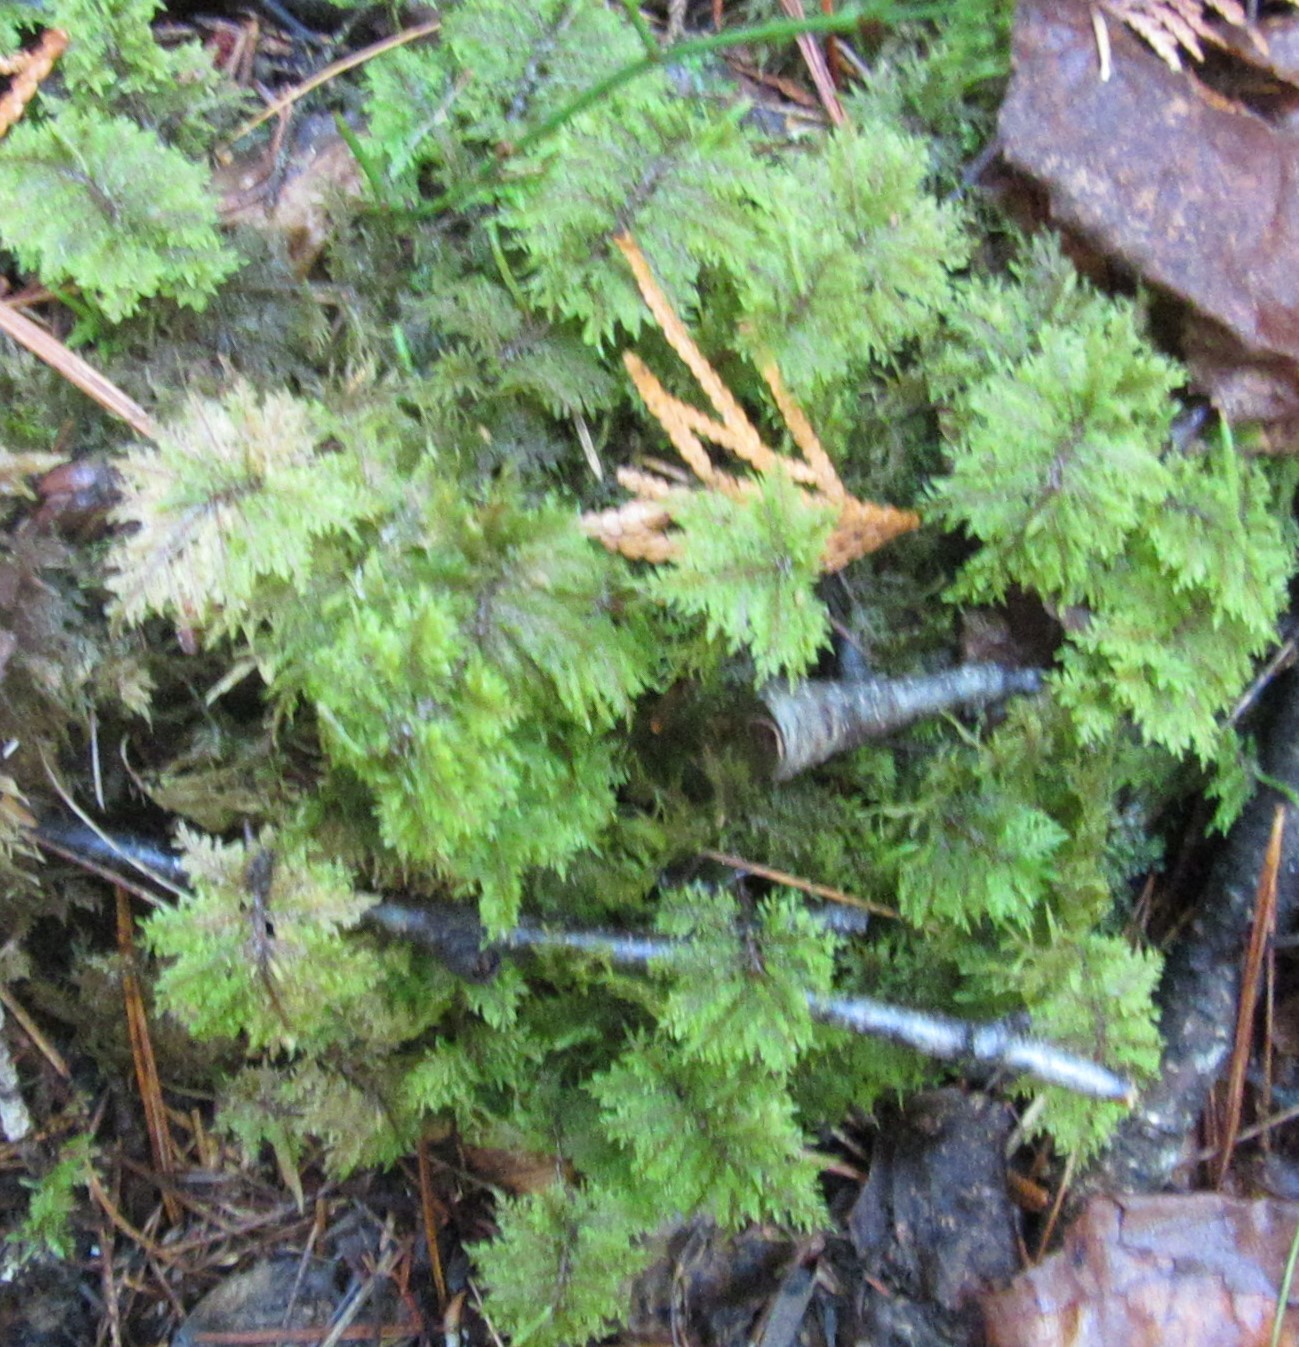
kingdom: Plantae
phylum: Bryophyta
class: Bryopsida
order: Hypnales
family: Hylocomiaceae
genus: Hylocomium
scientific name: Hylocomium splendens
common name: Stairstep moss
